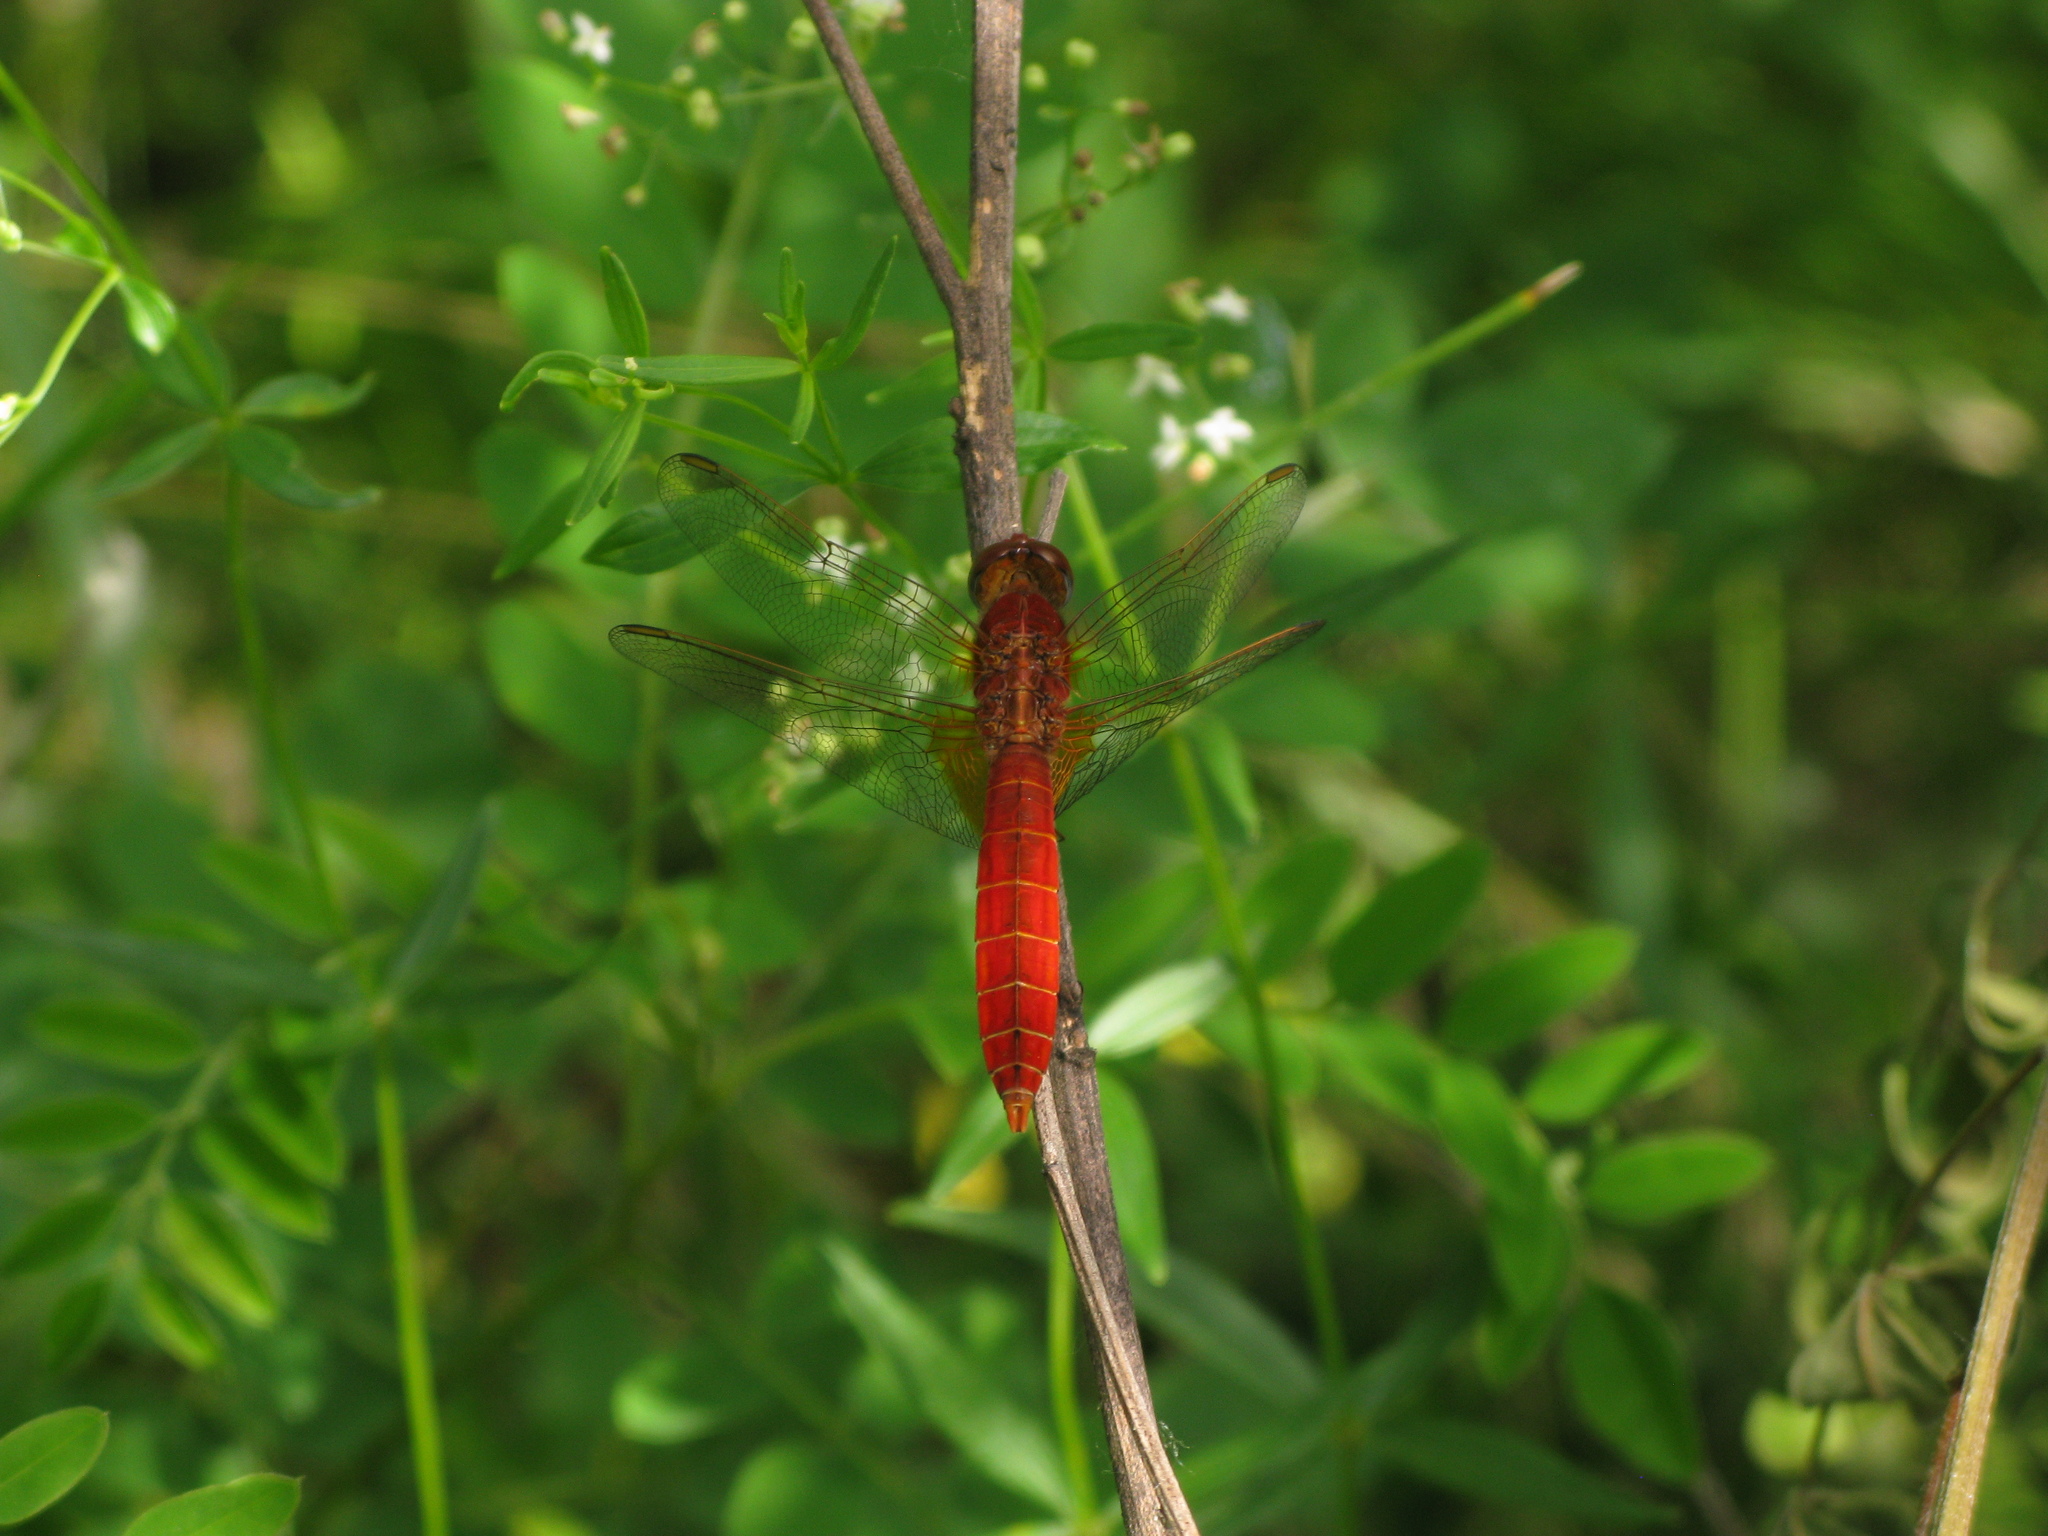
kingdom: Animalia
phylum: Arthropoda
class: Insecta
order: Odonata
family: Libellulidae
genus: Crocothemis
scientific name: Crocothemis erythraea
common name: Scarlet dragonfly
